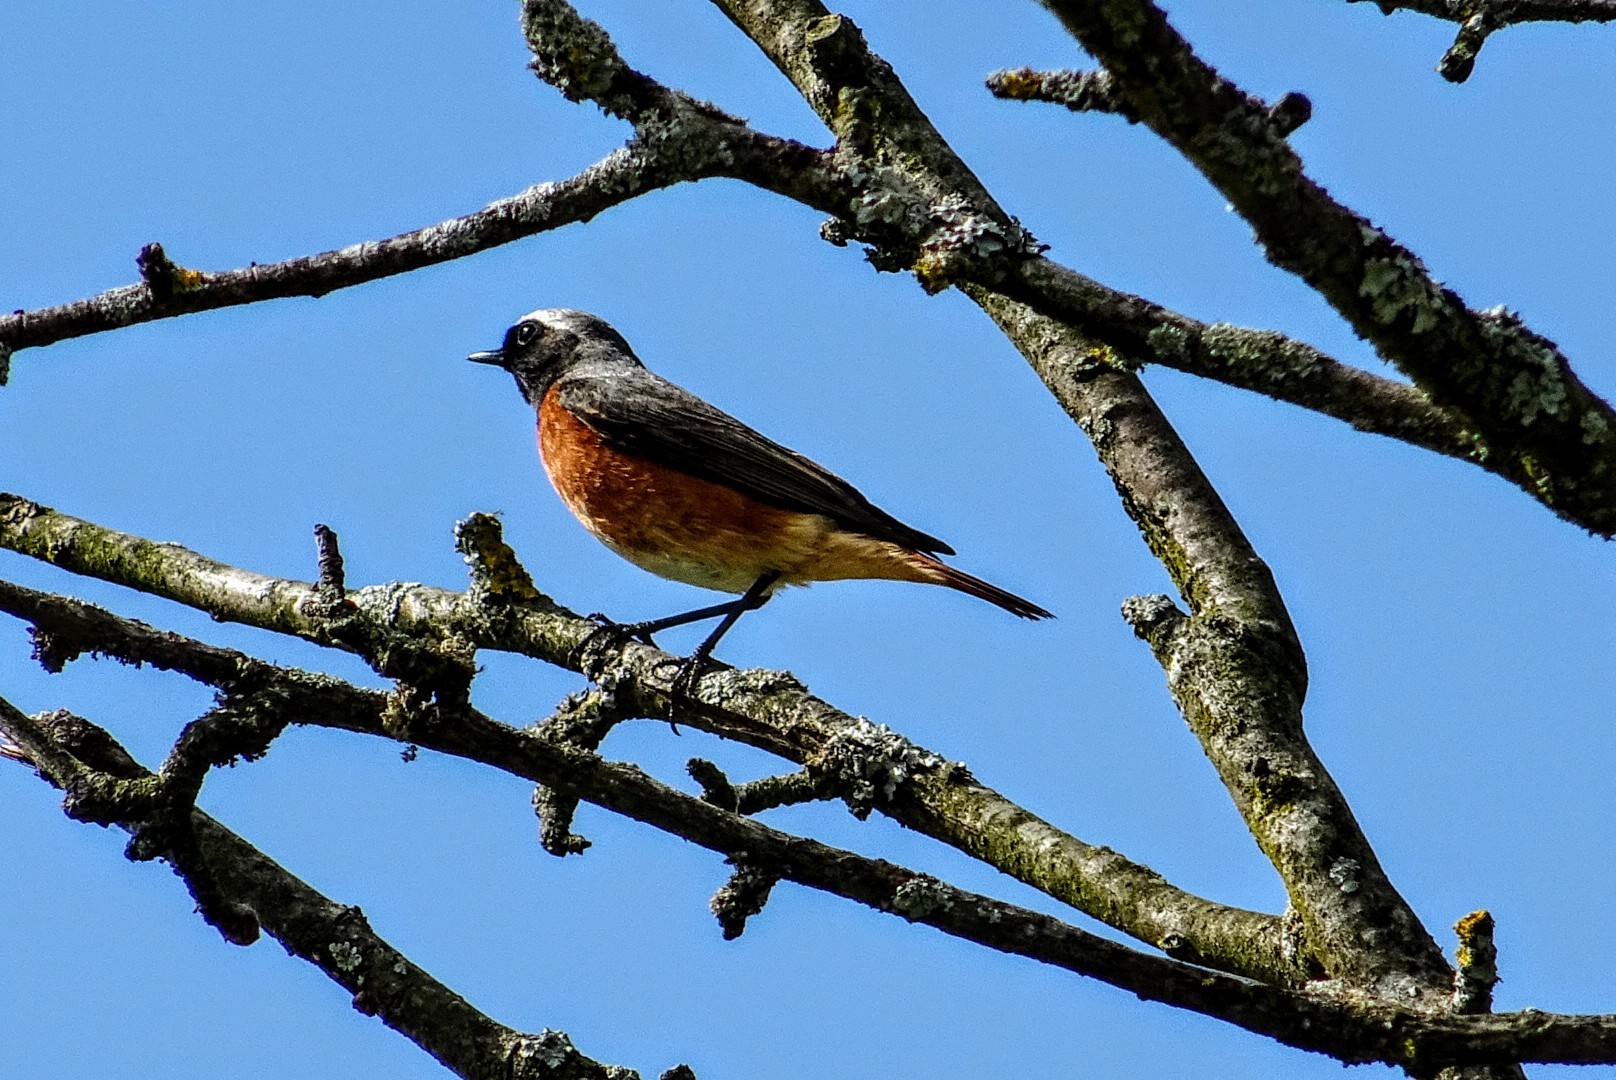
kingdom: Animalia
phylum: Chordata
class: Aves
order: Passeriformes
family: Muscicapidae
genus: Phoenicurus
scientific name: Phoenicurus phoenicurus
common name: Common redstart
